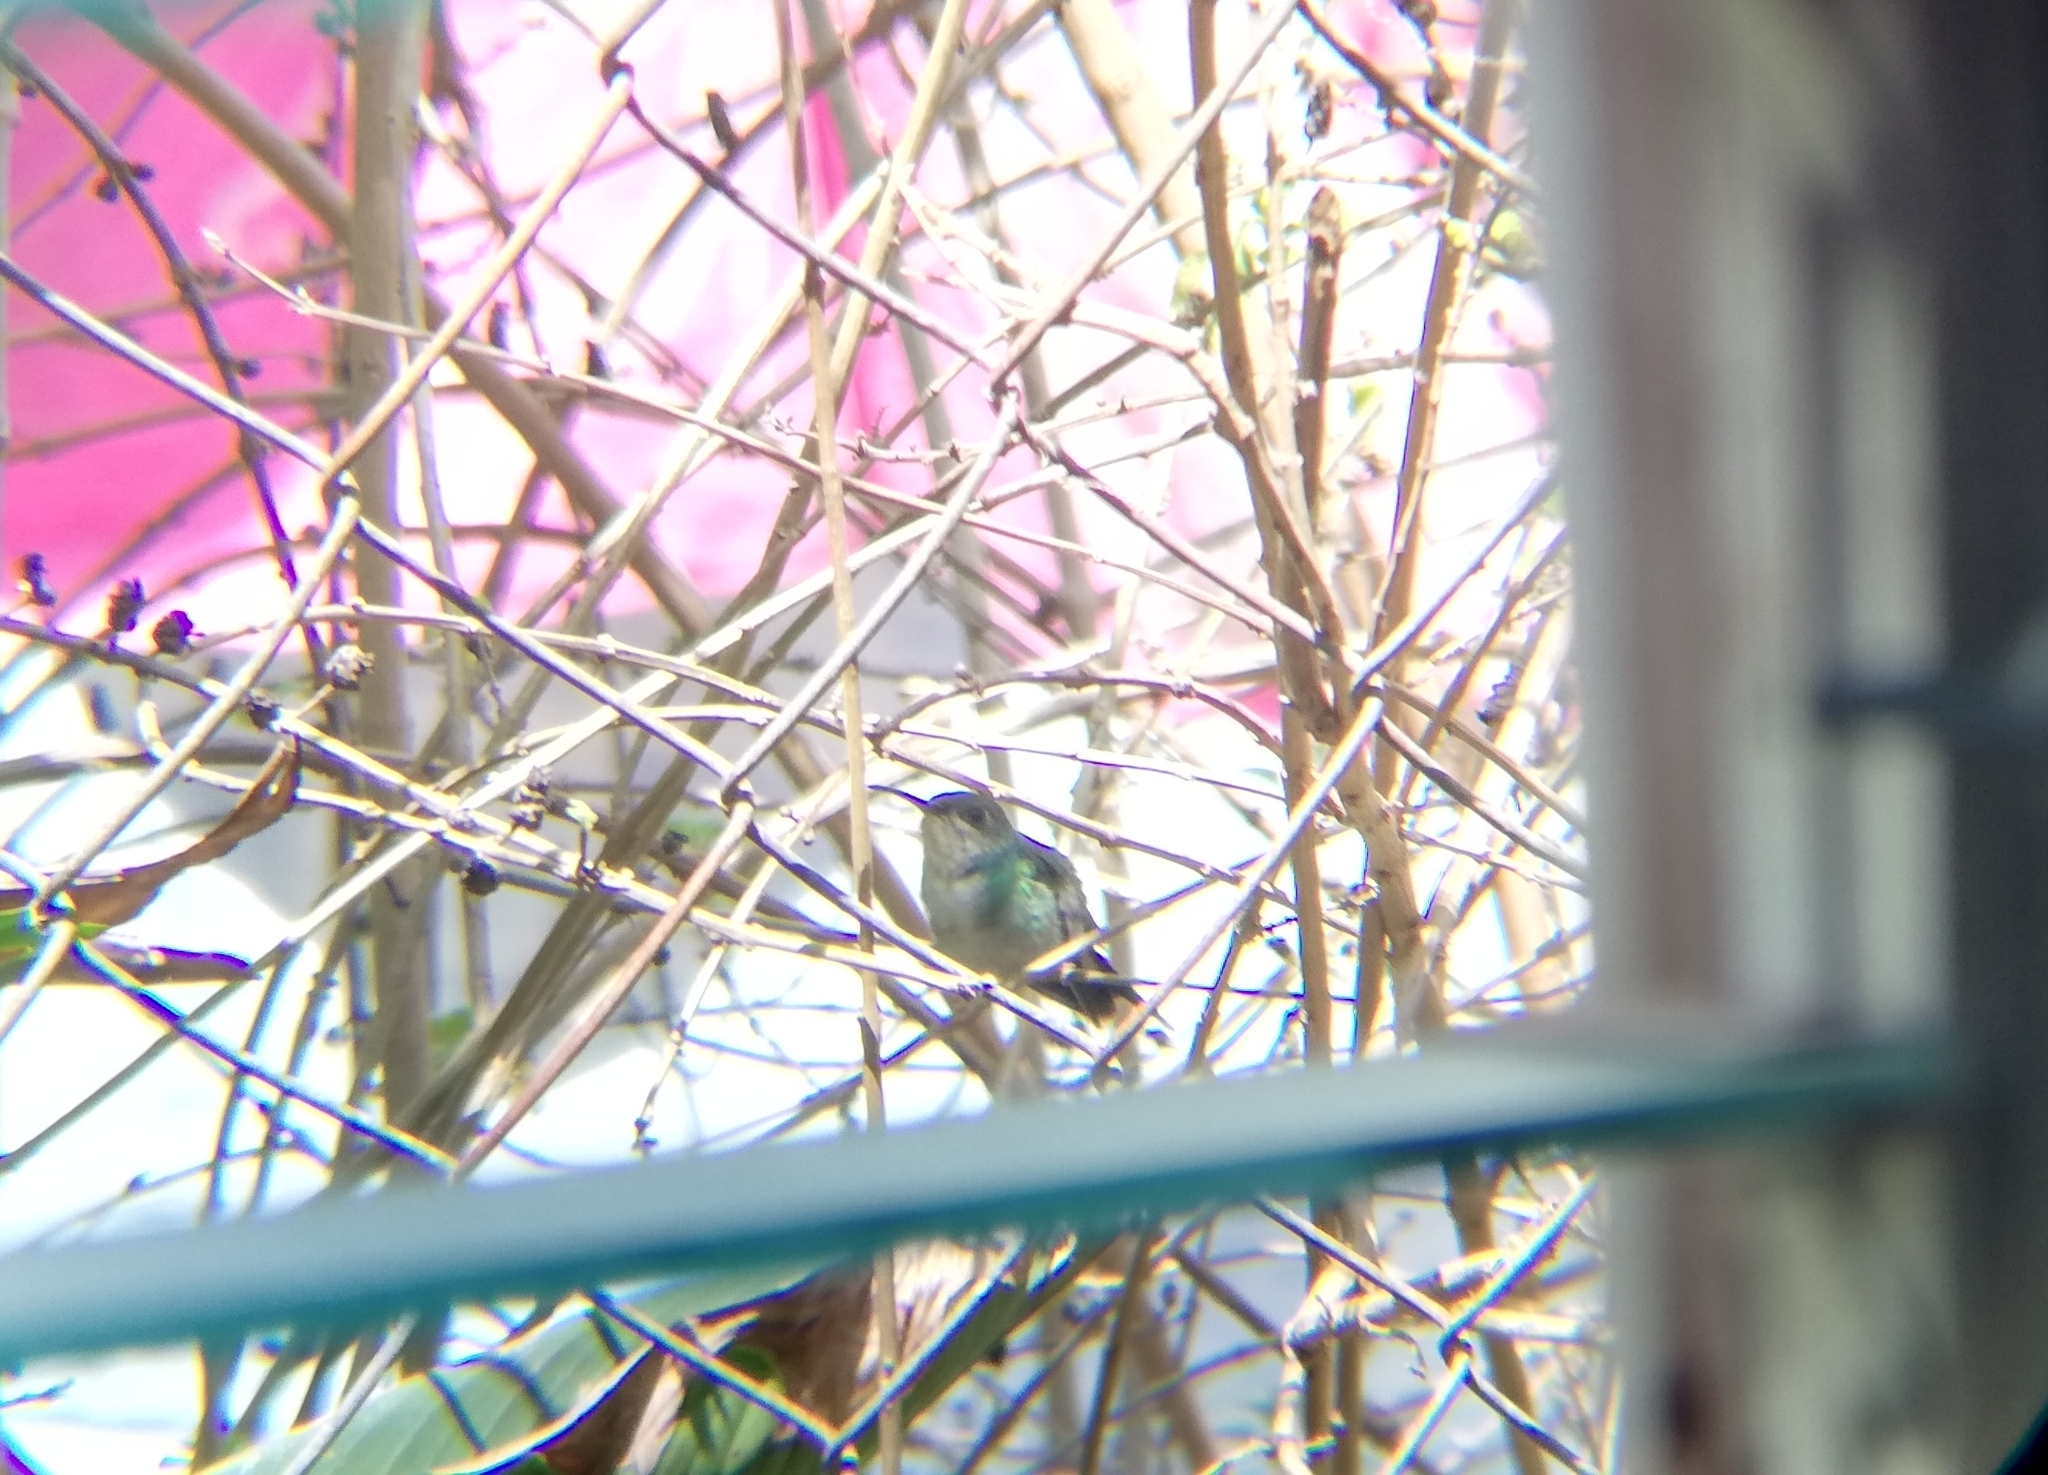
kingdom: Animalia
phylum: Chordata
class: Aves
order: Apodiformes
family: Trochilidae
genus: Chrysuronia
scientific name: Chrysuronia coeruleogularis
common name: Sapphire-throated hummingbird
